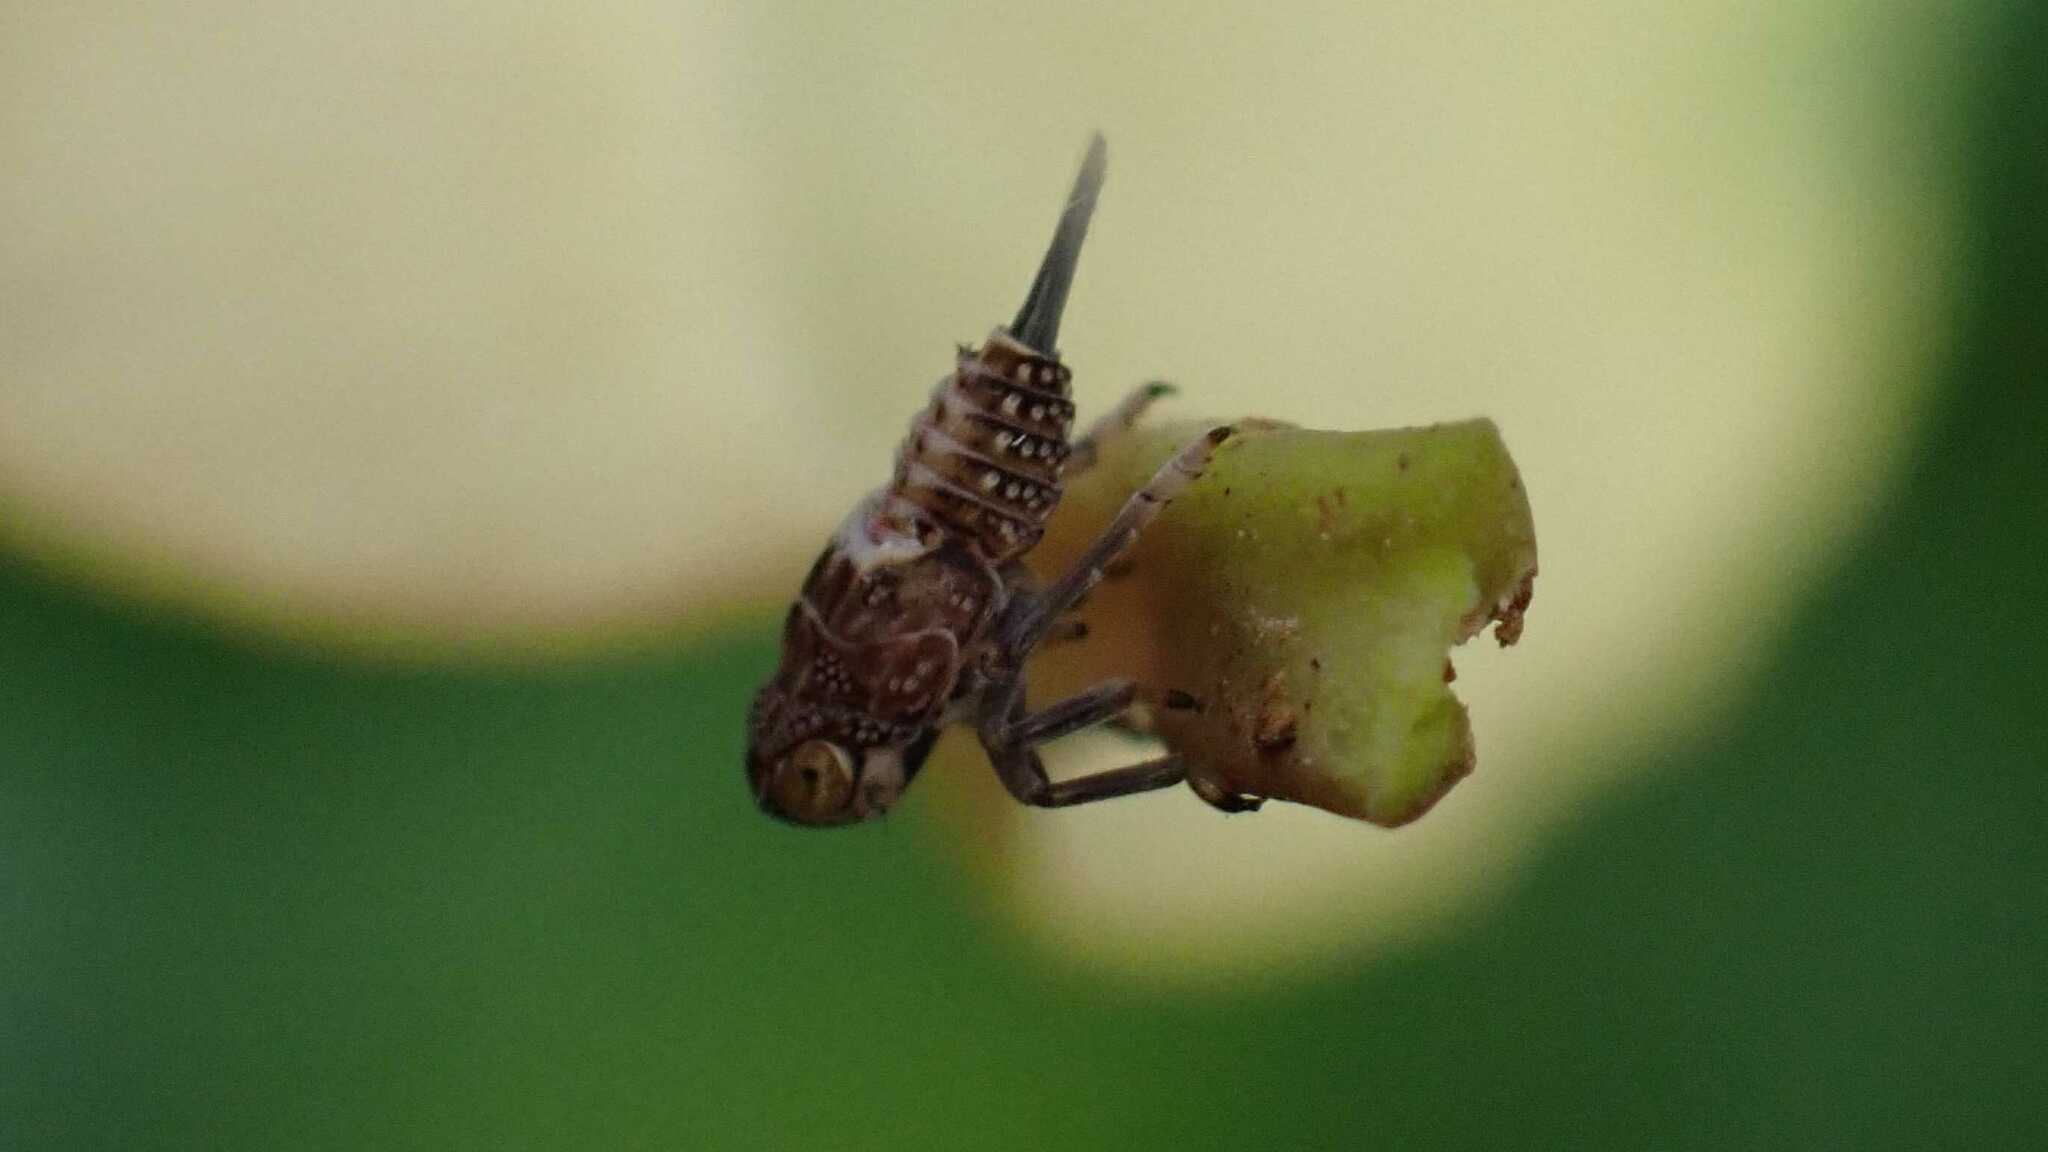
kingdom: Animalia
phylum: Arthropoda
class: Insecta
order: Hemiptera
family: Issidae
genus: Issus
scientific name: Issus coleoptratus
